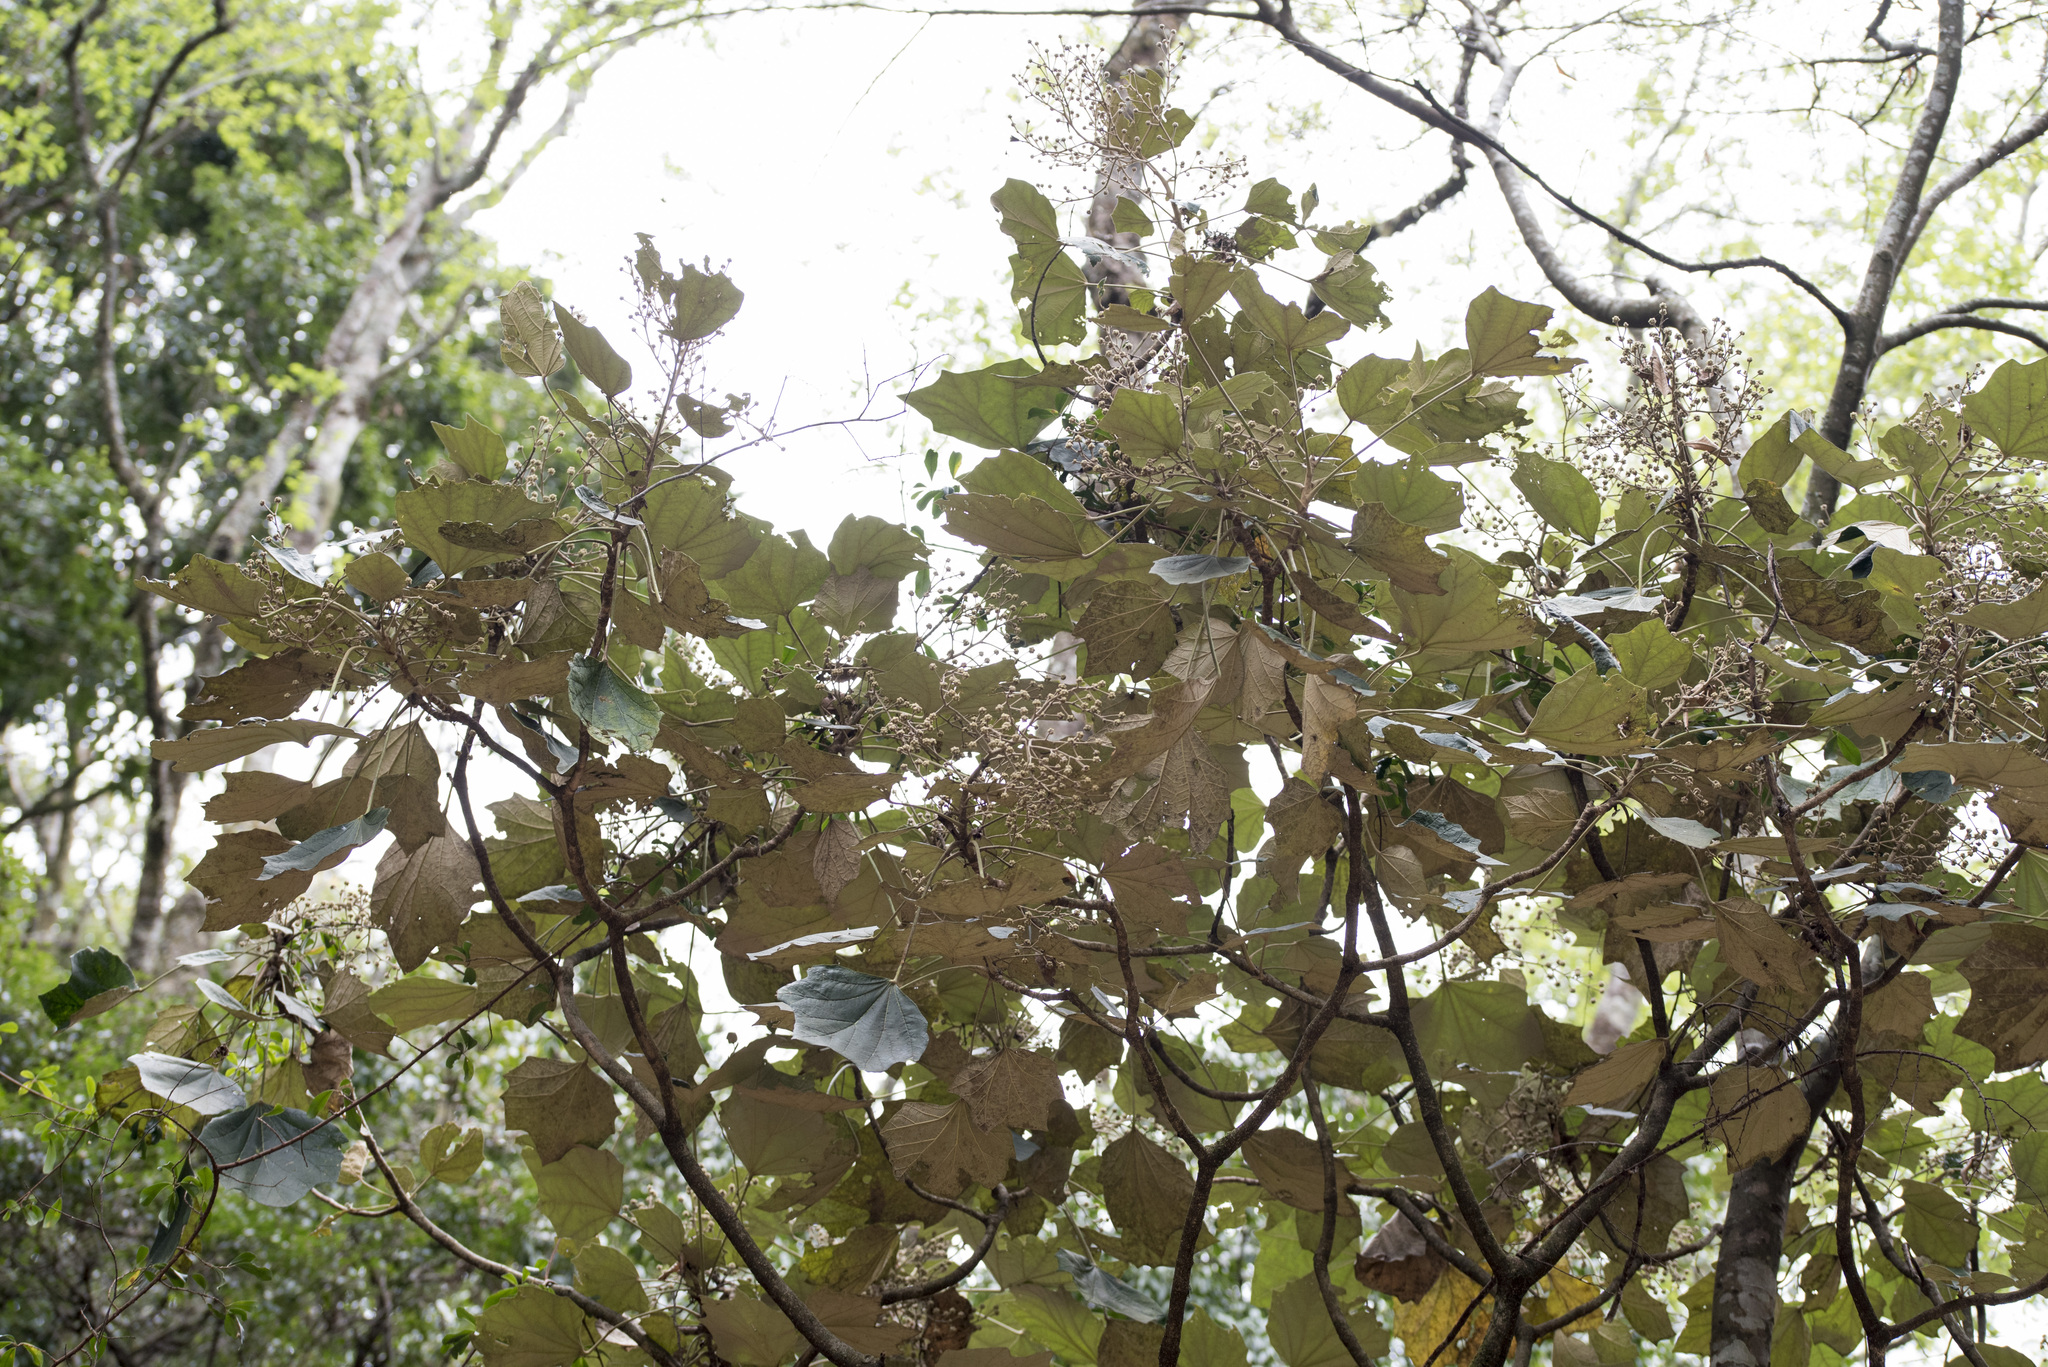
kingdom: Plantae
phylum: Tracheophyta
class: Magnoliopsida
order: Apiales
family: Araliaceae
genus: Sinopanax
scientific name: Sinopanax formosanus
